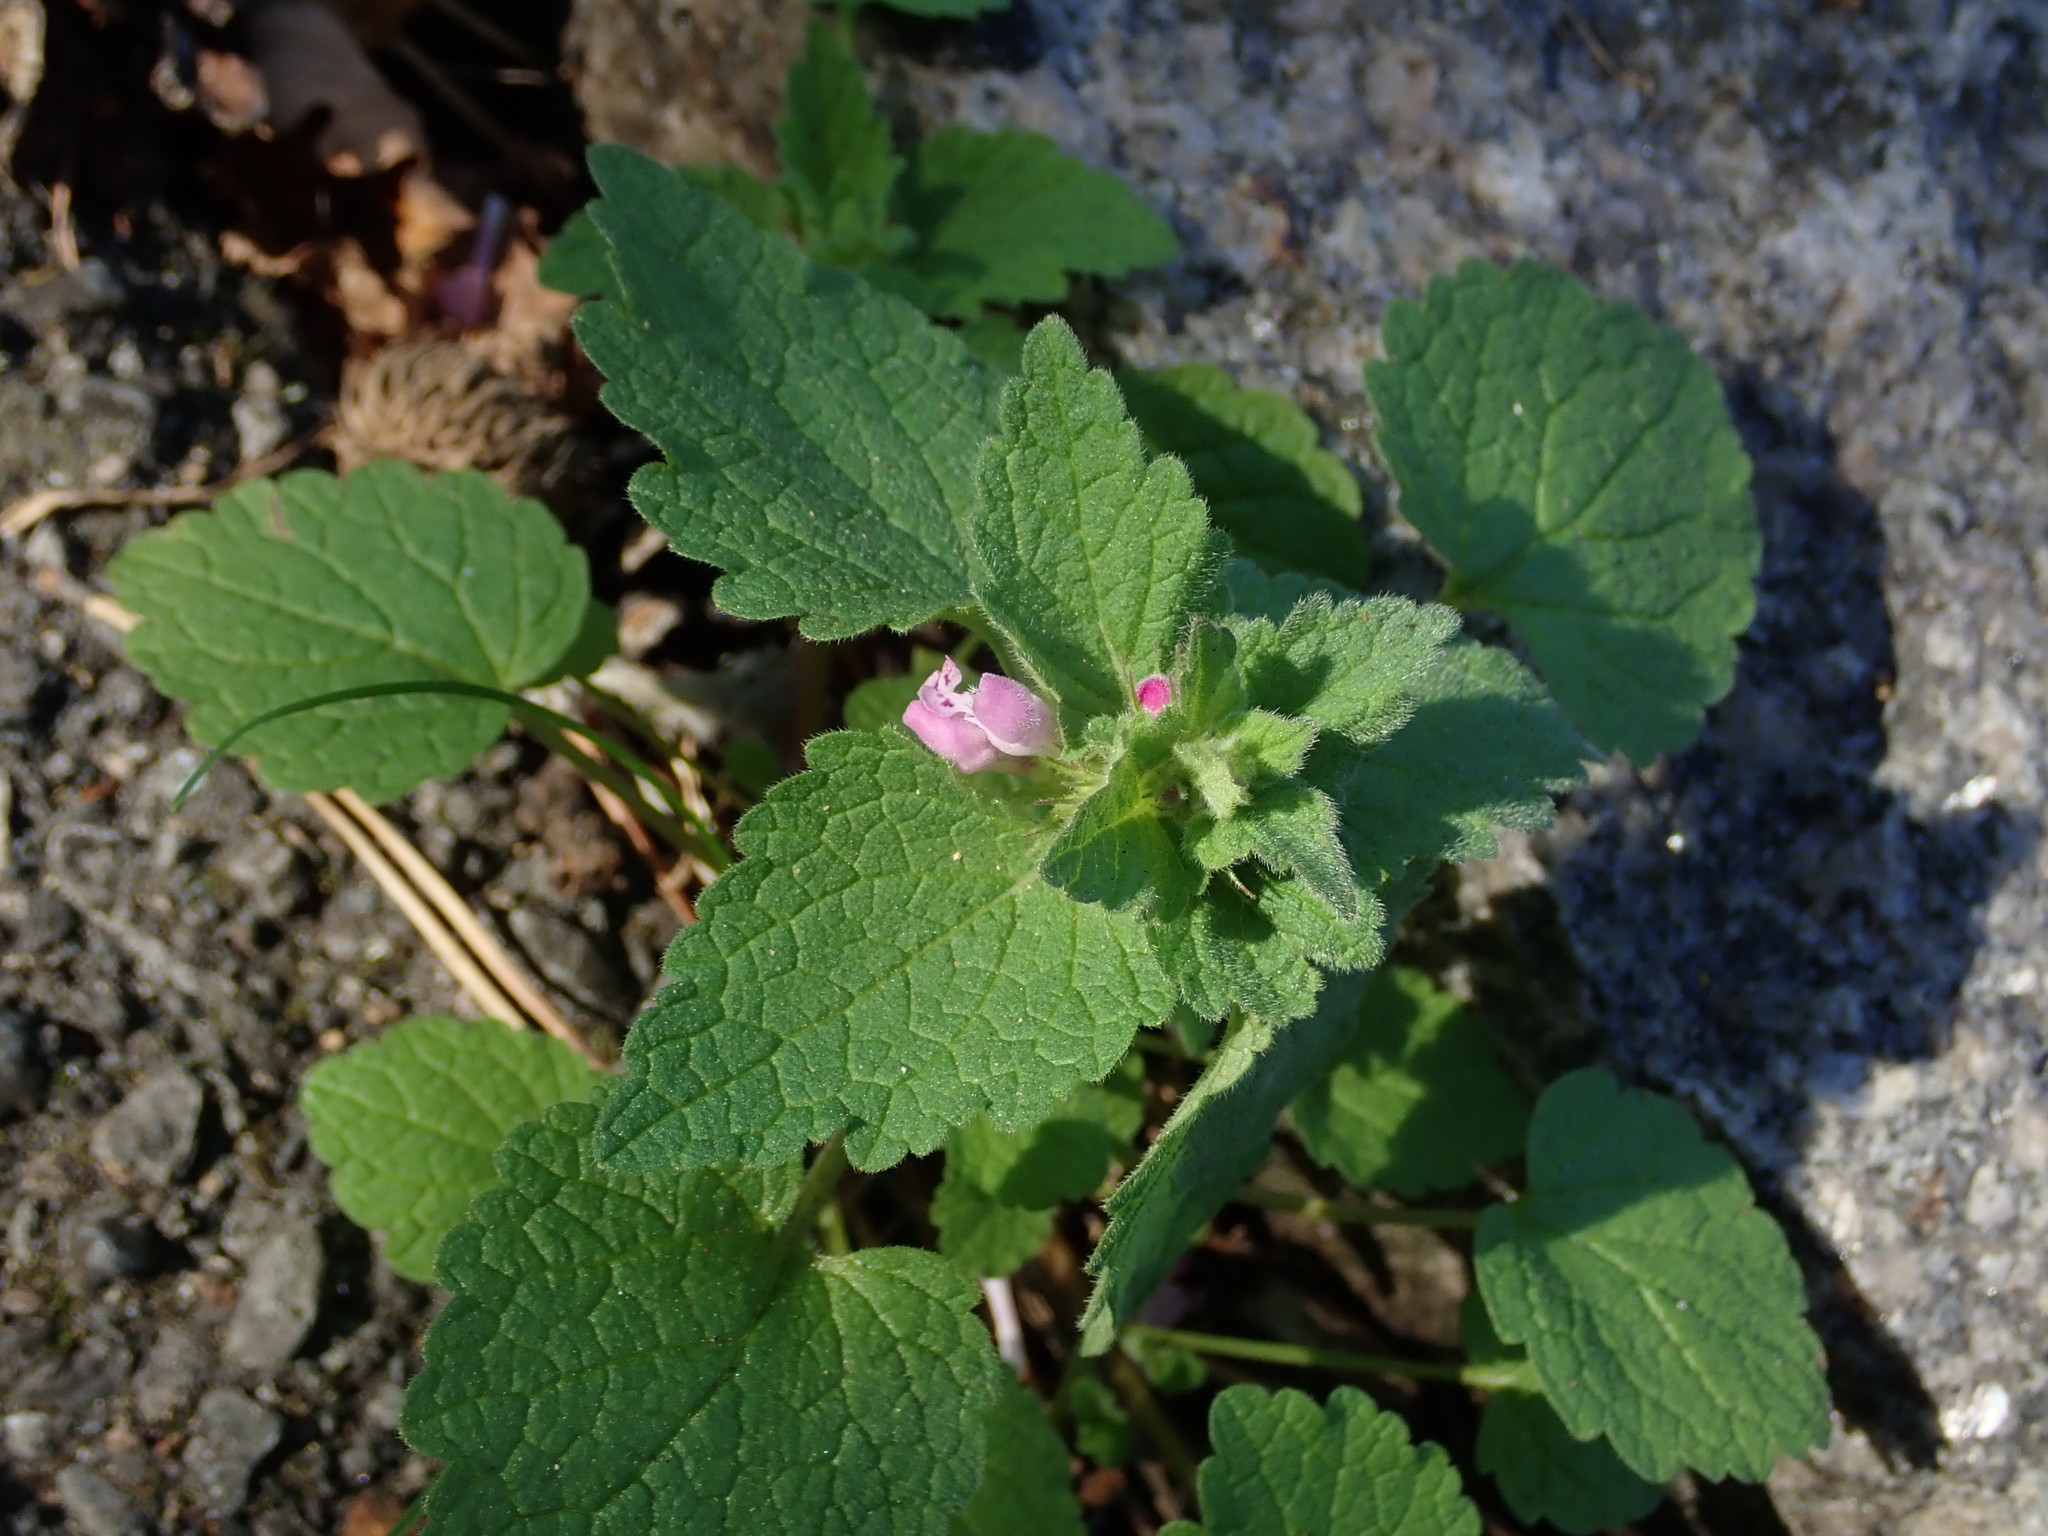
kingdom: Plantae
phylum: Tracheophyta
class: Magnoliopsida
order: Lamiales
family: Lamiaceae
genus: Lamium
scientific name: Lamium purpureum
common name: Red dead-nettle
